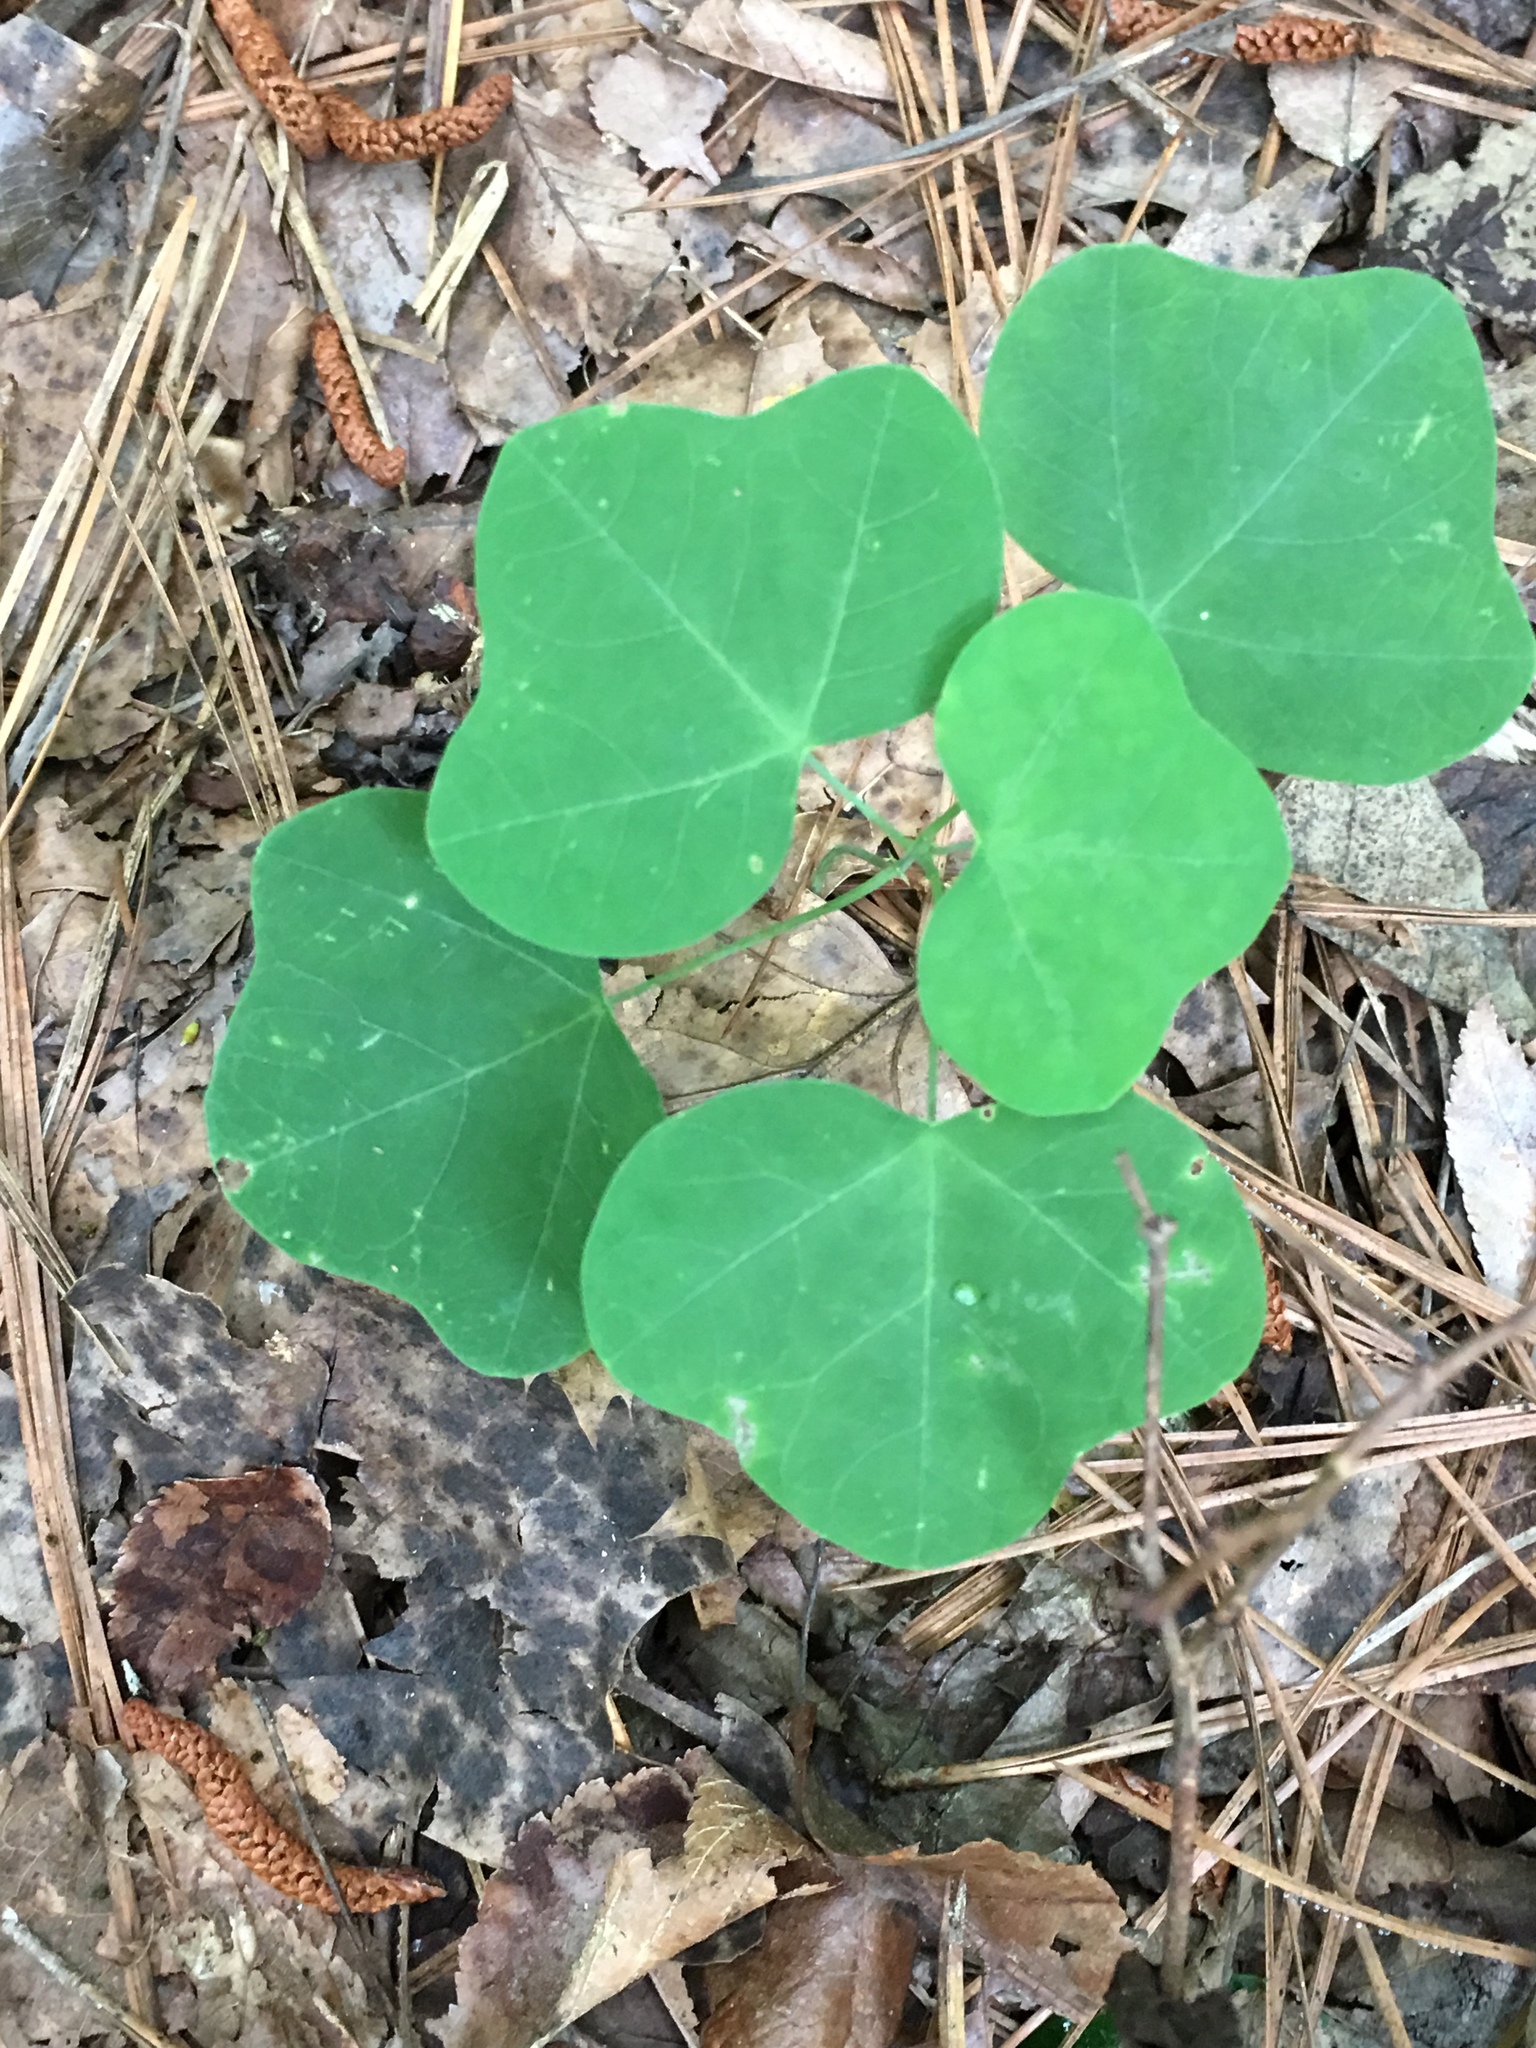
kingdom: Plantae
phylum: Tracheophyta
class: Magnoliopsida
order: Malpighiales
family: Passifloraceae
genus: Passiflora
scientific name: Passiflora lutea
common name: Yellow passionflower
